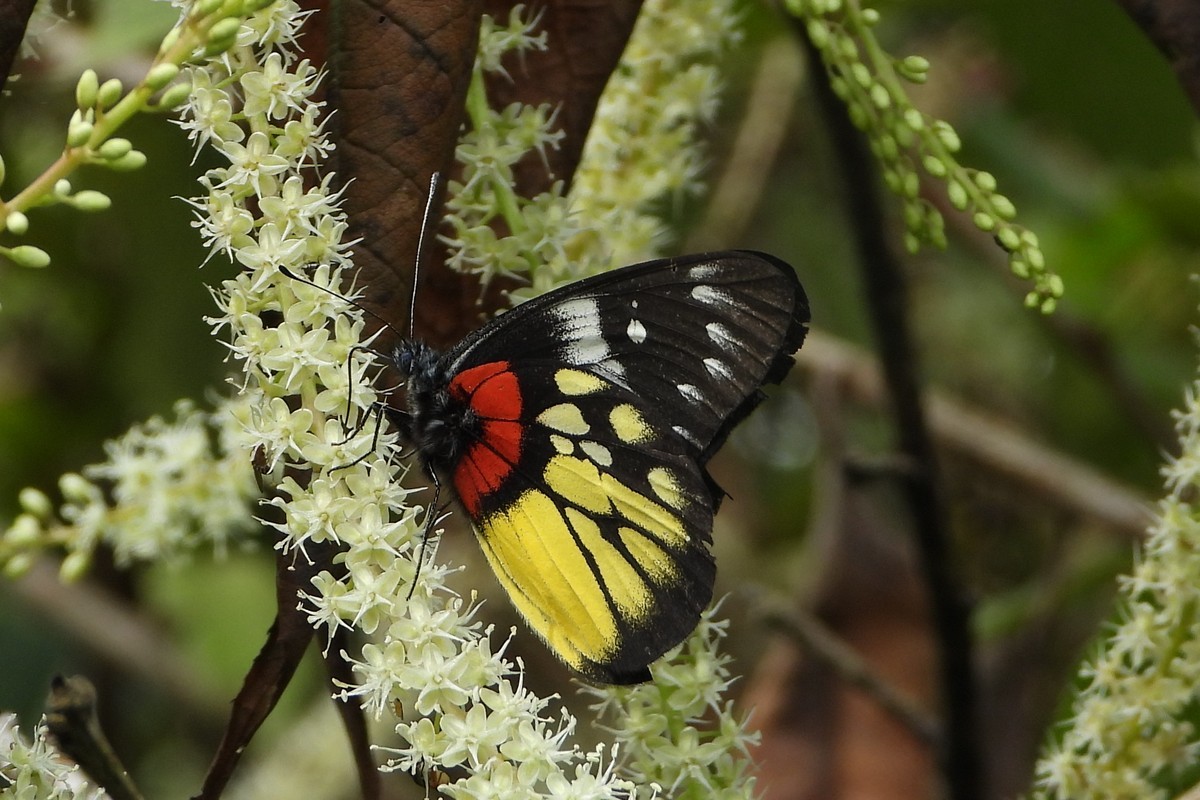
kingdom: Animalia
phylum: Arthropoda
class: Insecta
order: Lepidoptera
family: Pieridae
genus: Delias
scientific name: Delias pasithoe
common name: Red-base jezebel
